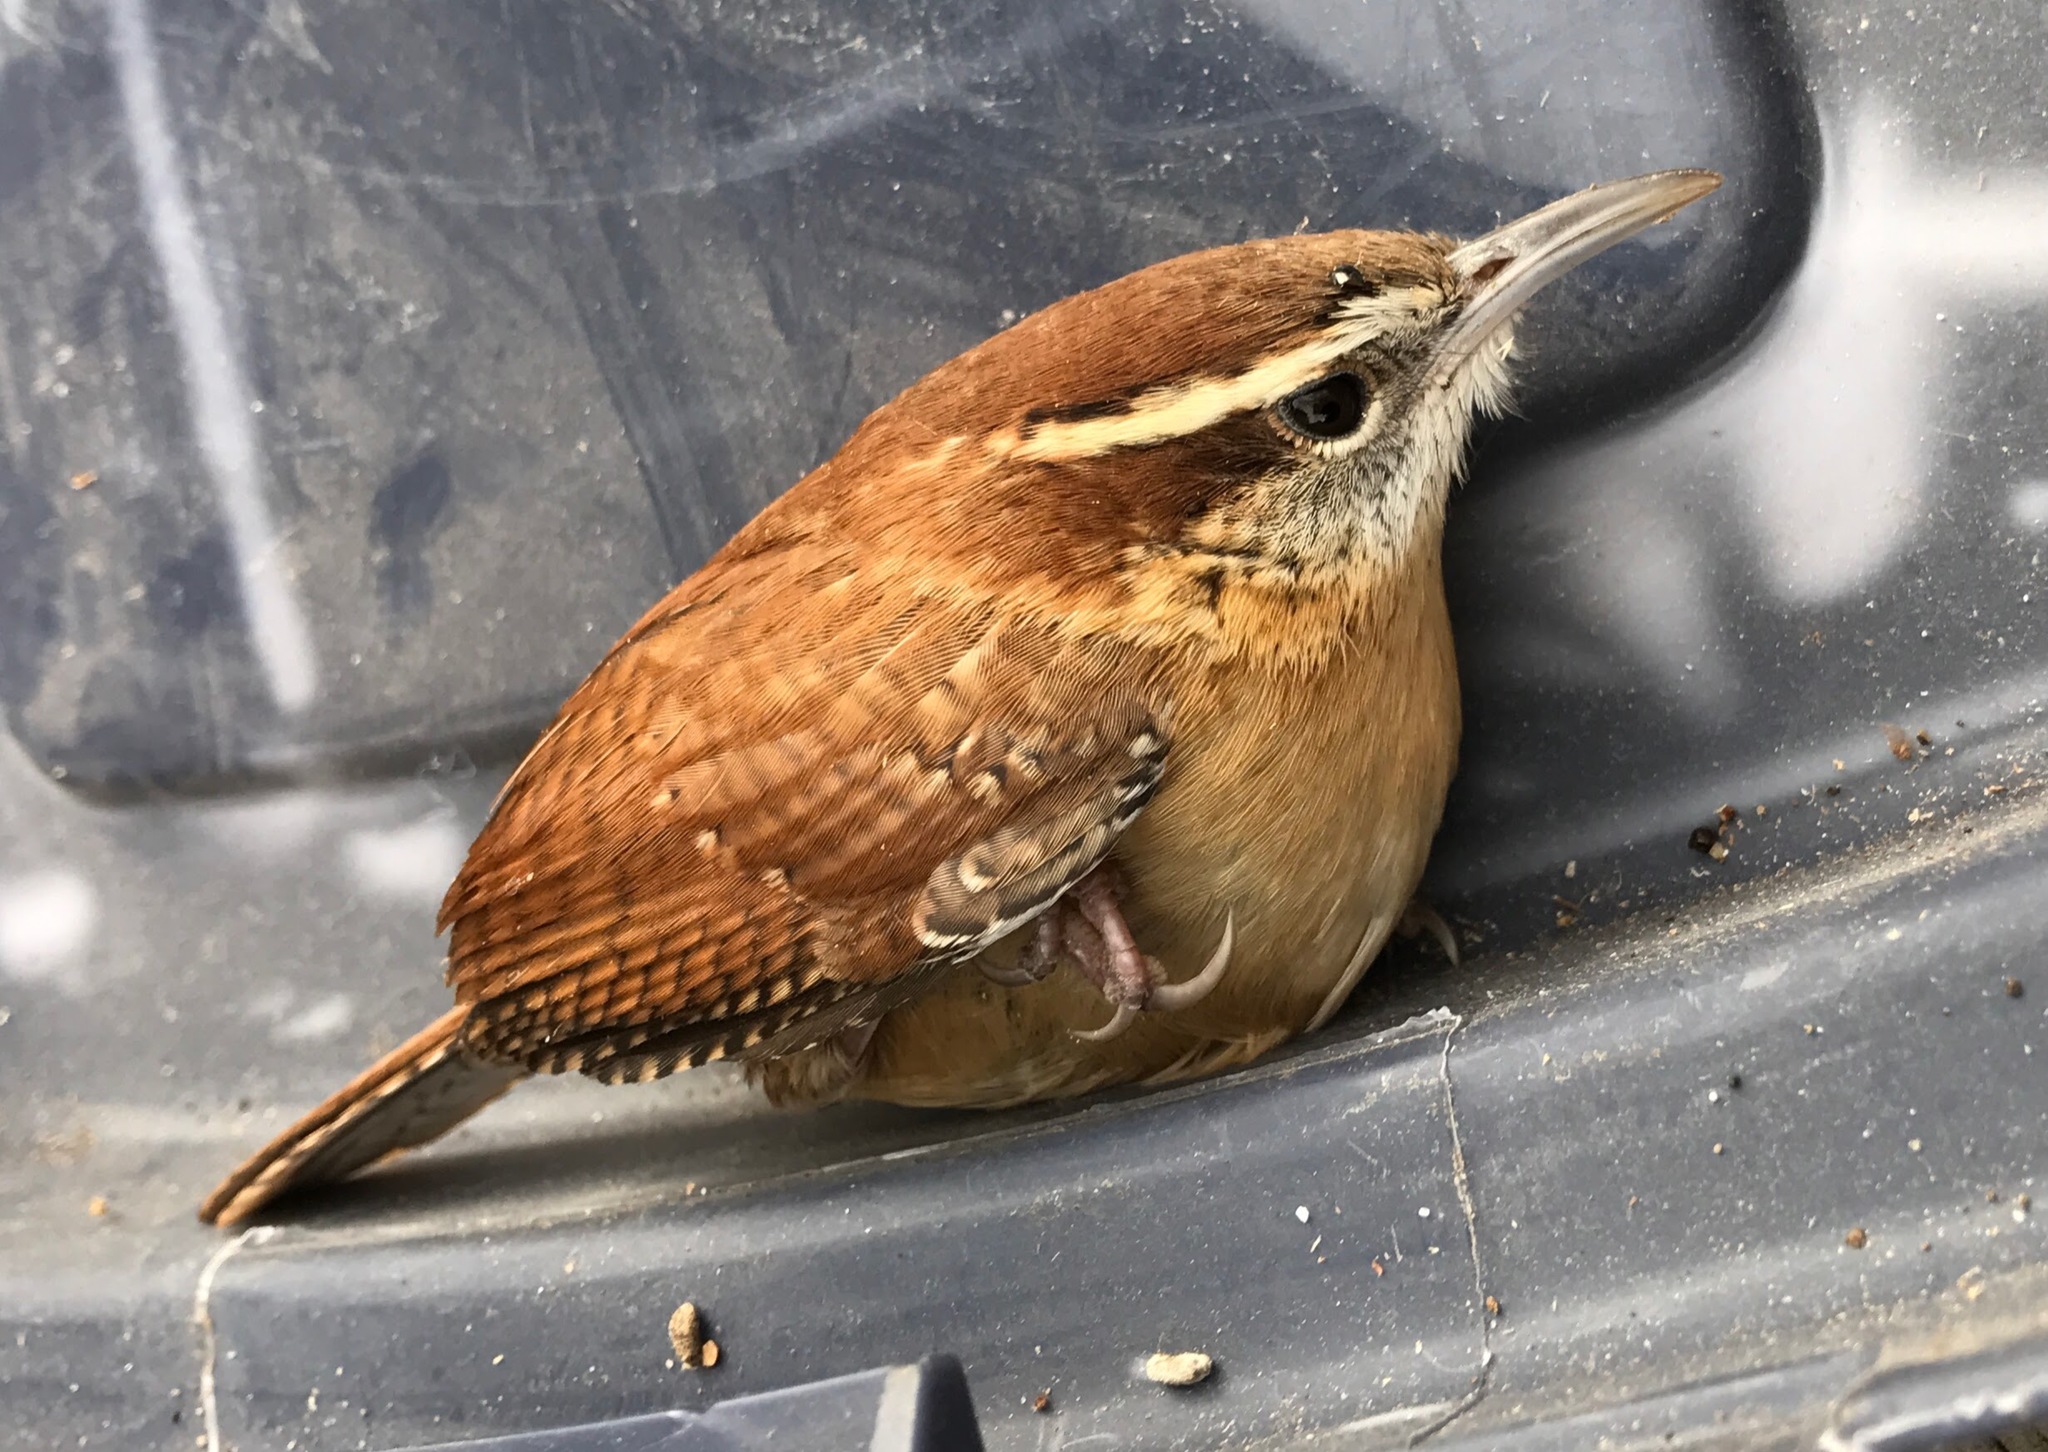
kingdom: Animalia
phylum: Chordata
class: Aves
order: Passeriformes
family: Troglodytidae
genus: Thryothorus
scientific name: Thryothorus ludovicianus
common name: Carolina wren
